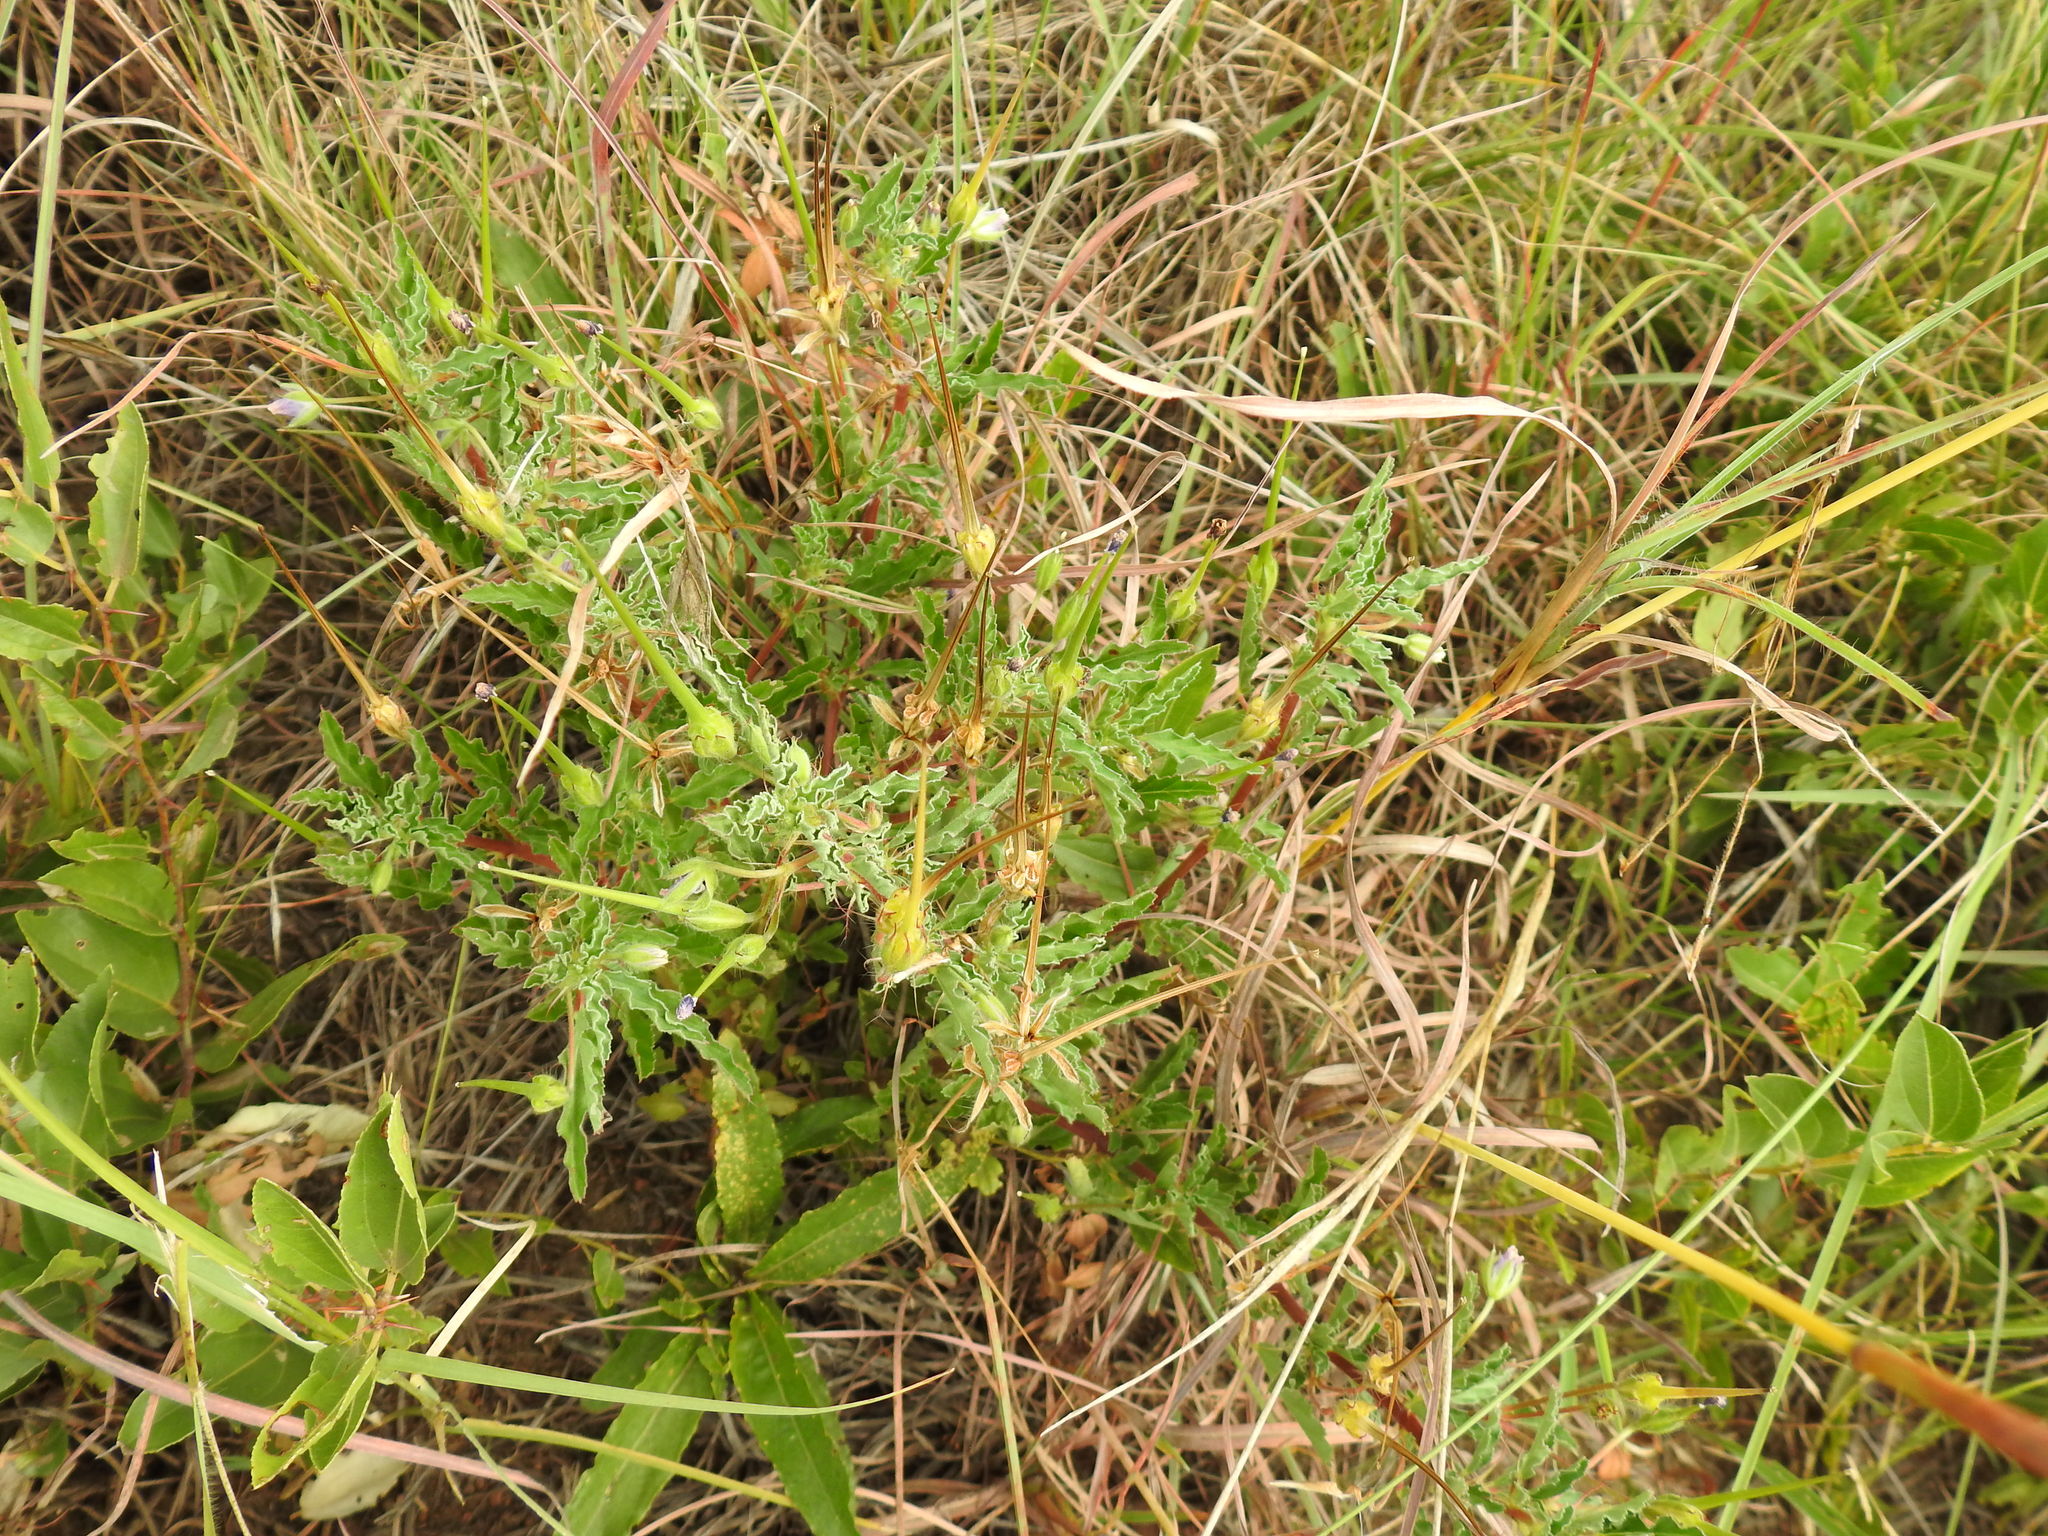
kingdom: Plantae
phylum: Tracheophyta
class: Magnoliopsida
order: Geraniales
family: Geraniaceae
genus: Monsonia
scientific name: Monsonia angustifolia
